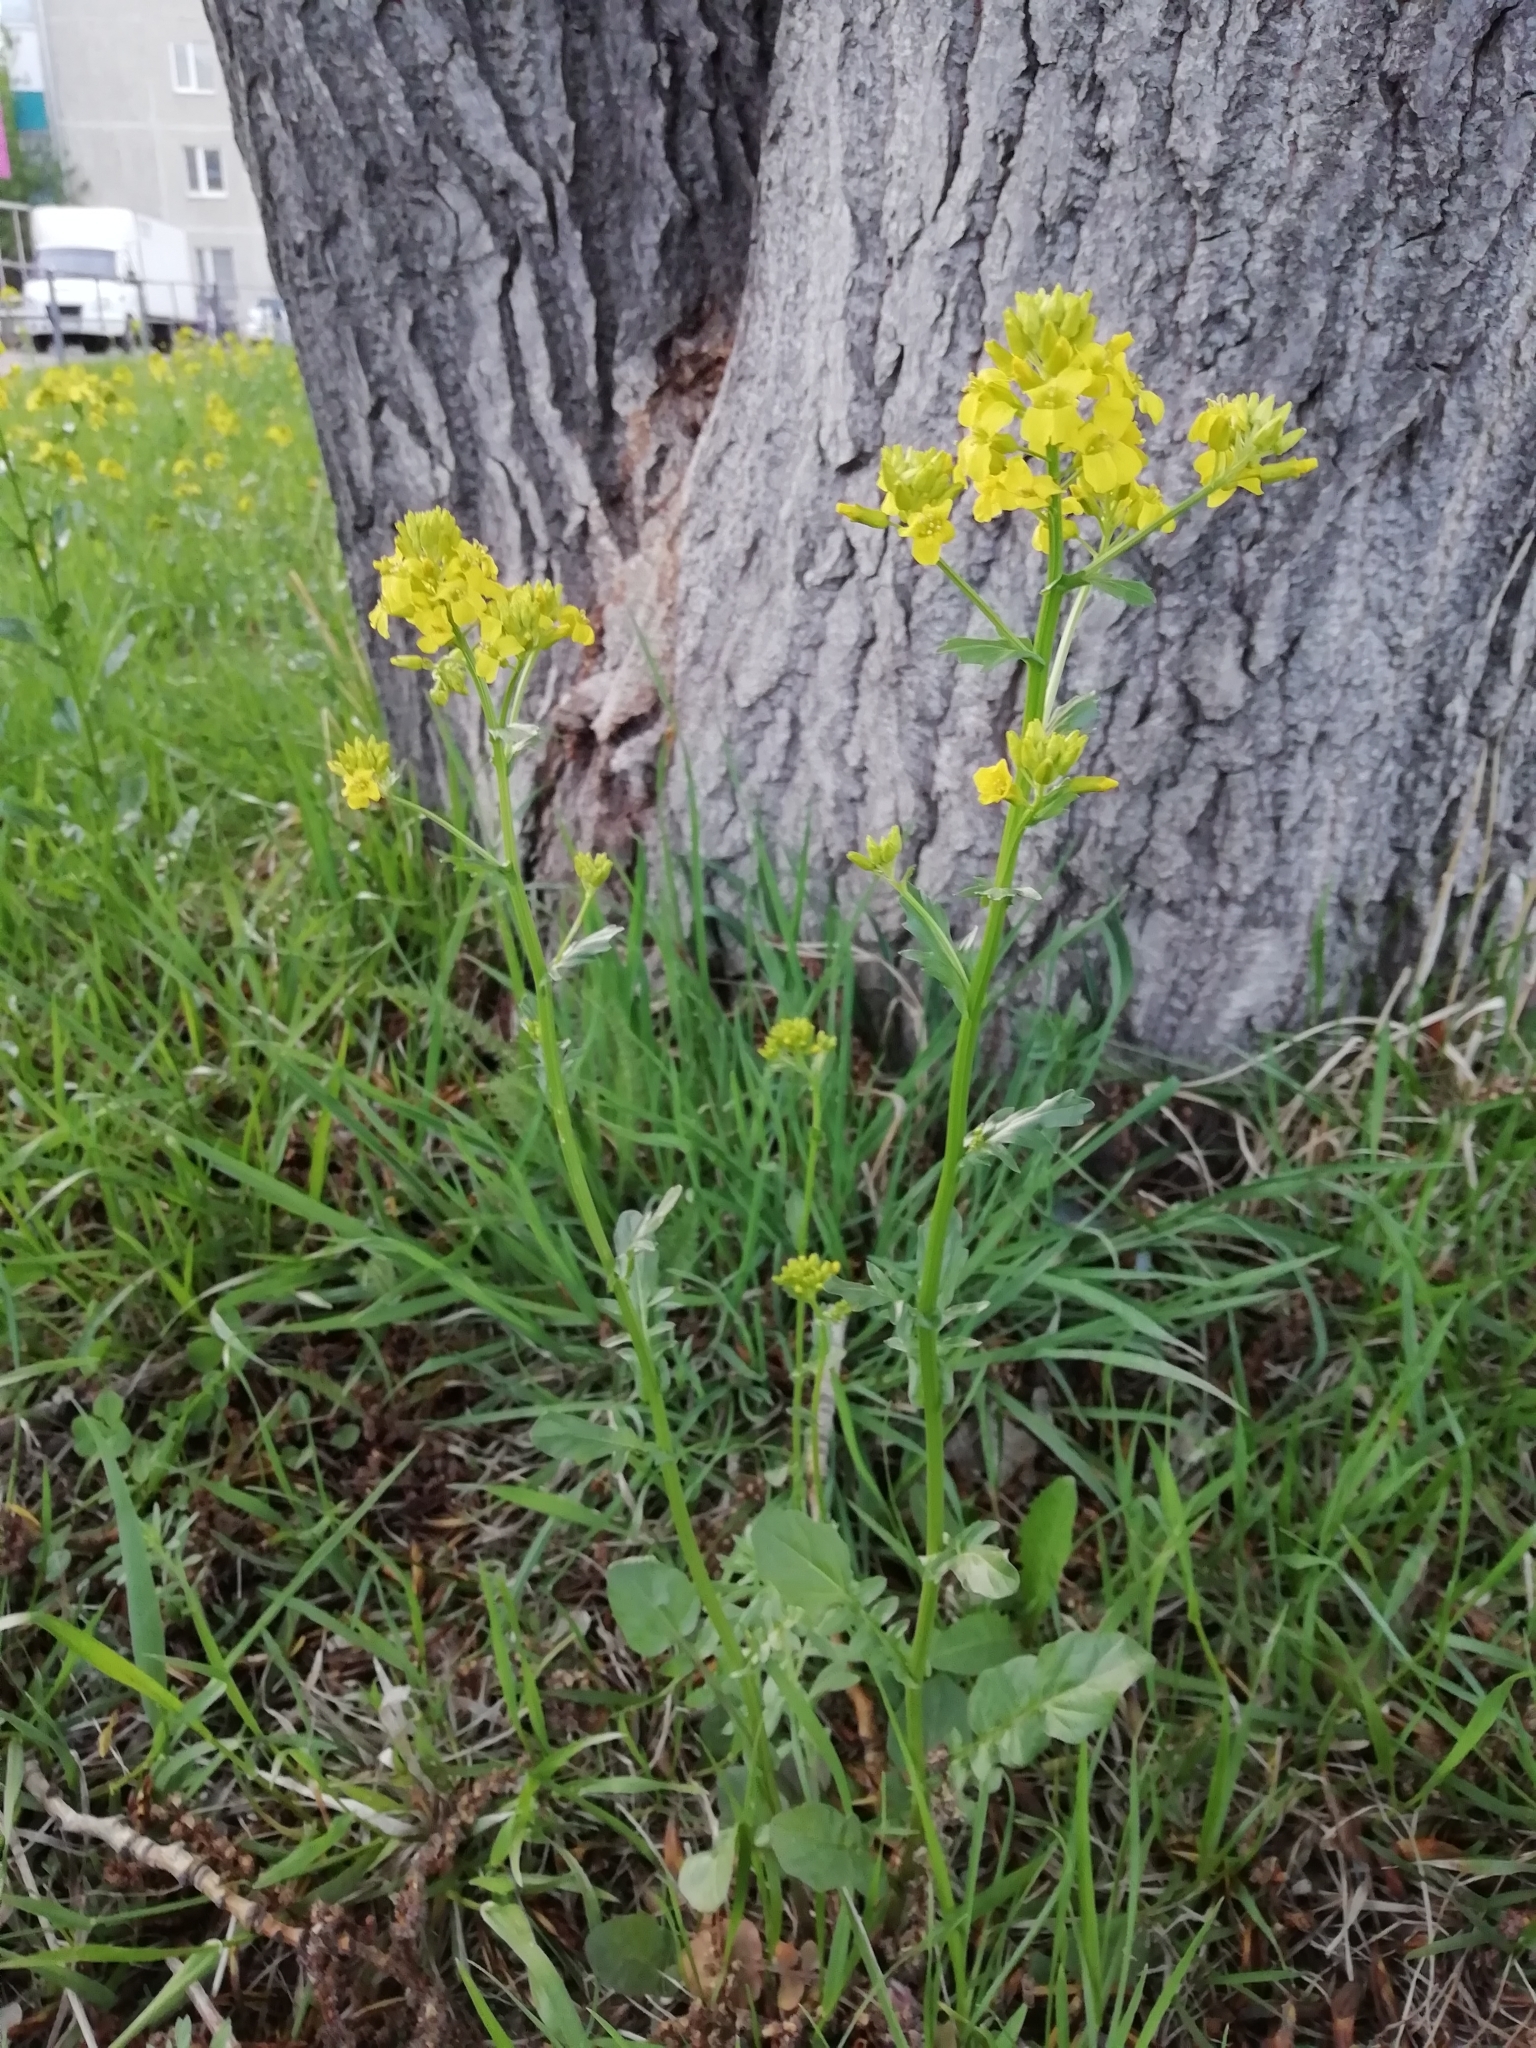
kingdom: Plantae
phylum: Tracheophyta
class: Magnoliopsida
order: Brassicales
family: Brassicaceae
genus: Barbarea
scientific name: Barbarea vulgaris
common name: Cressy-greens
